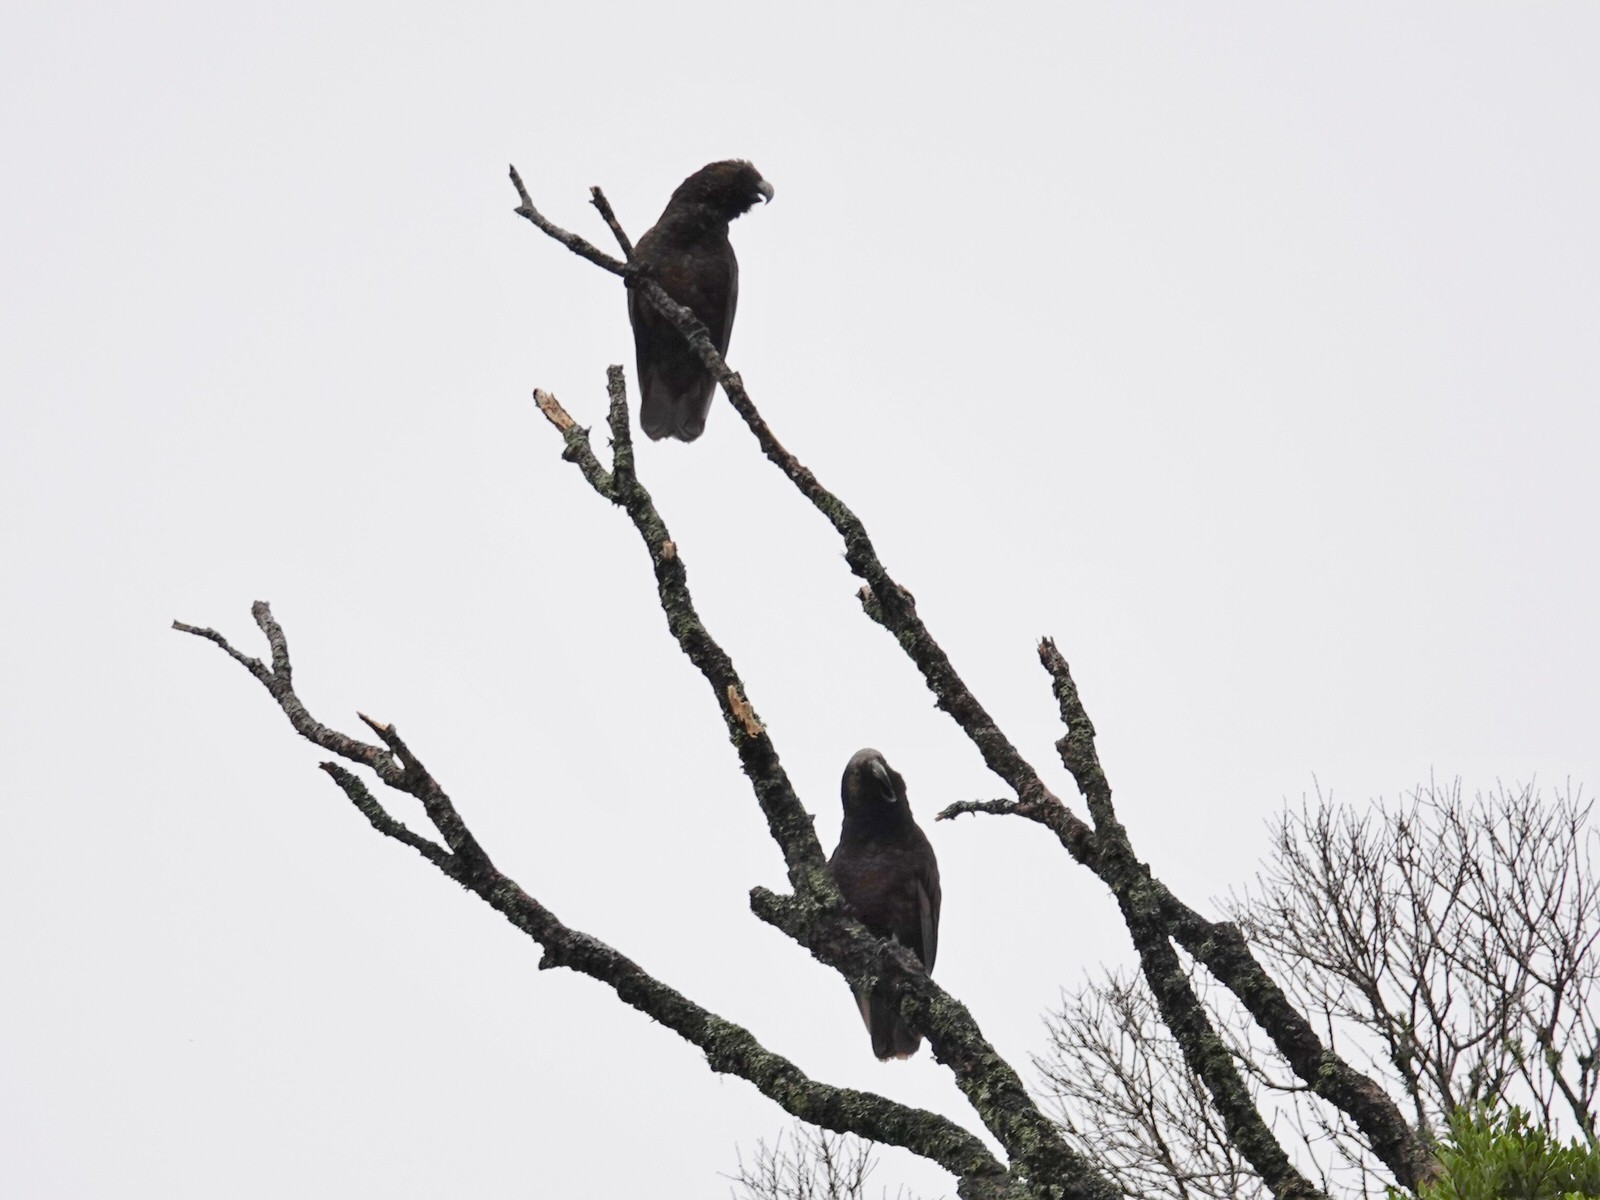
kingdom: Animalia
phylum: Chordata
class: Aves
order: Psittaciformes
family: Psittacidae
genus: Nestor
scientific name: Nestor meridionalis
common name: New zealand kaka
